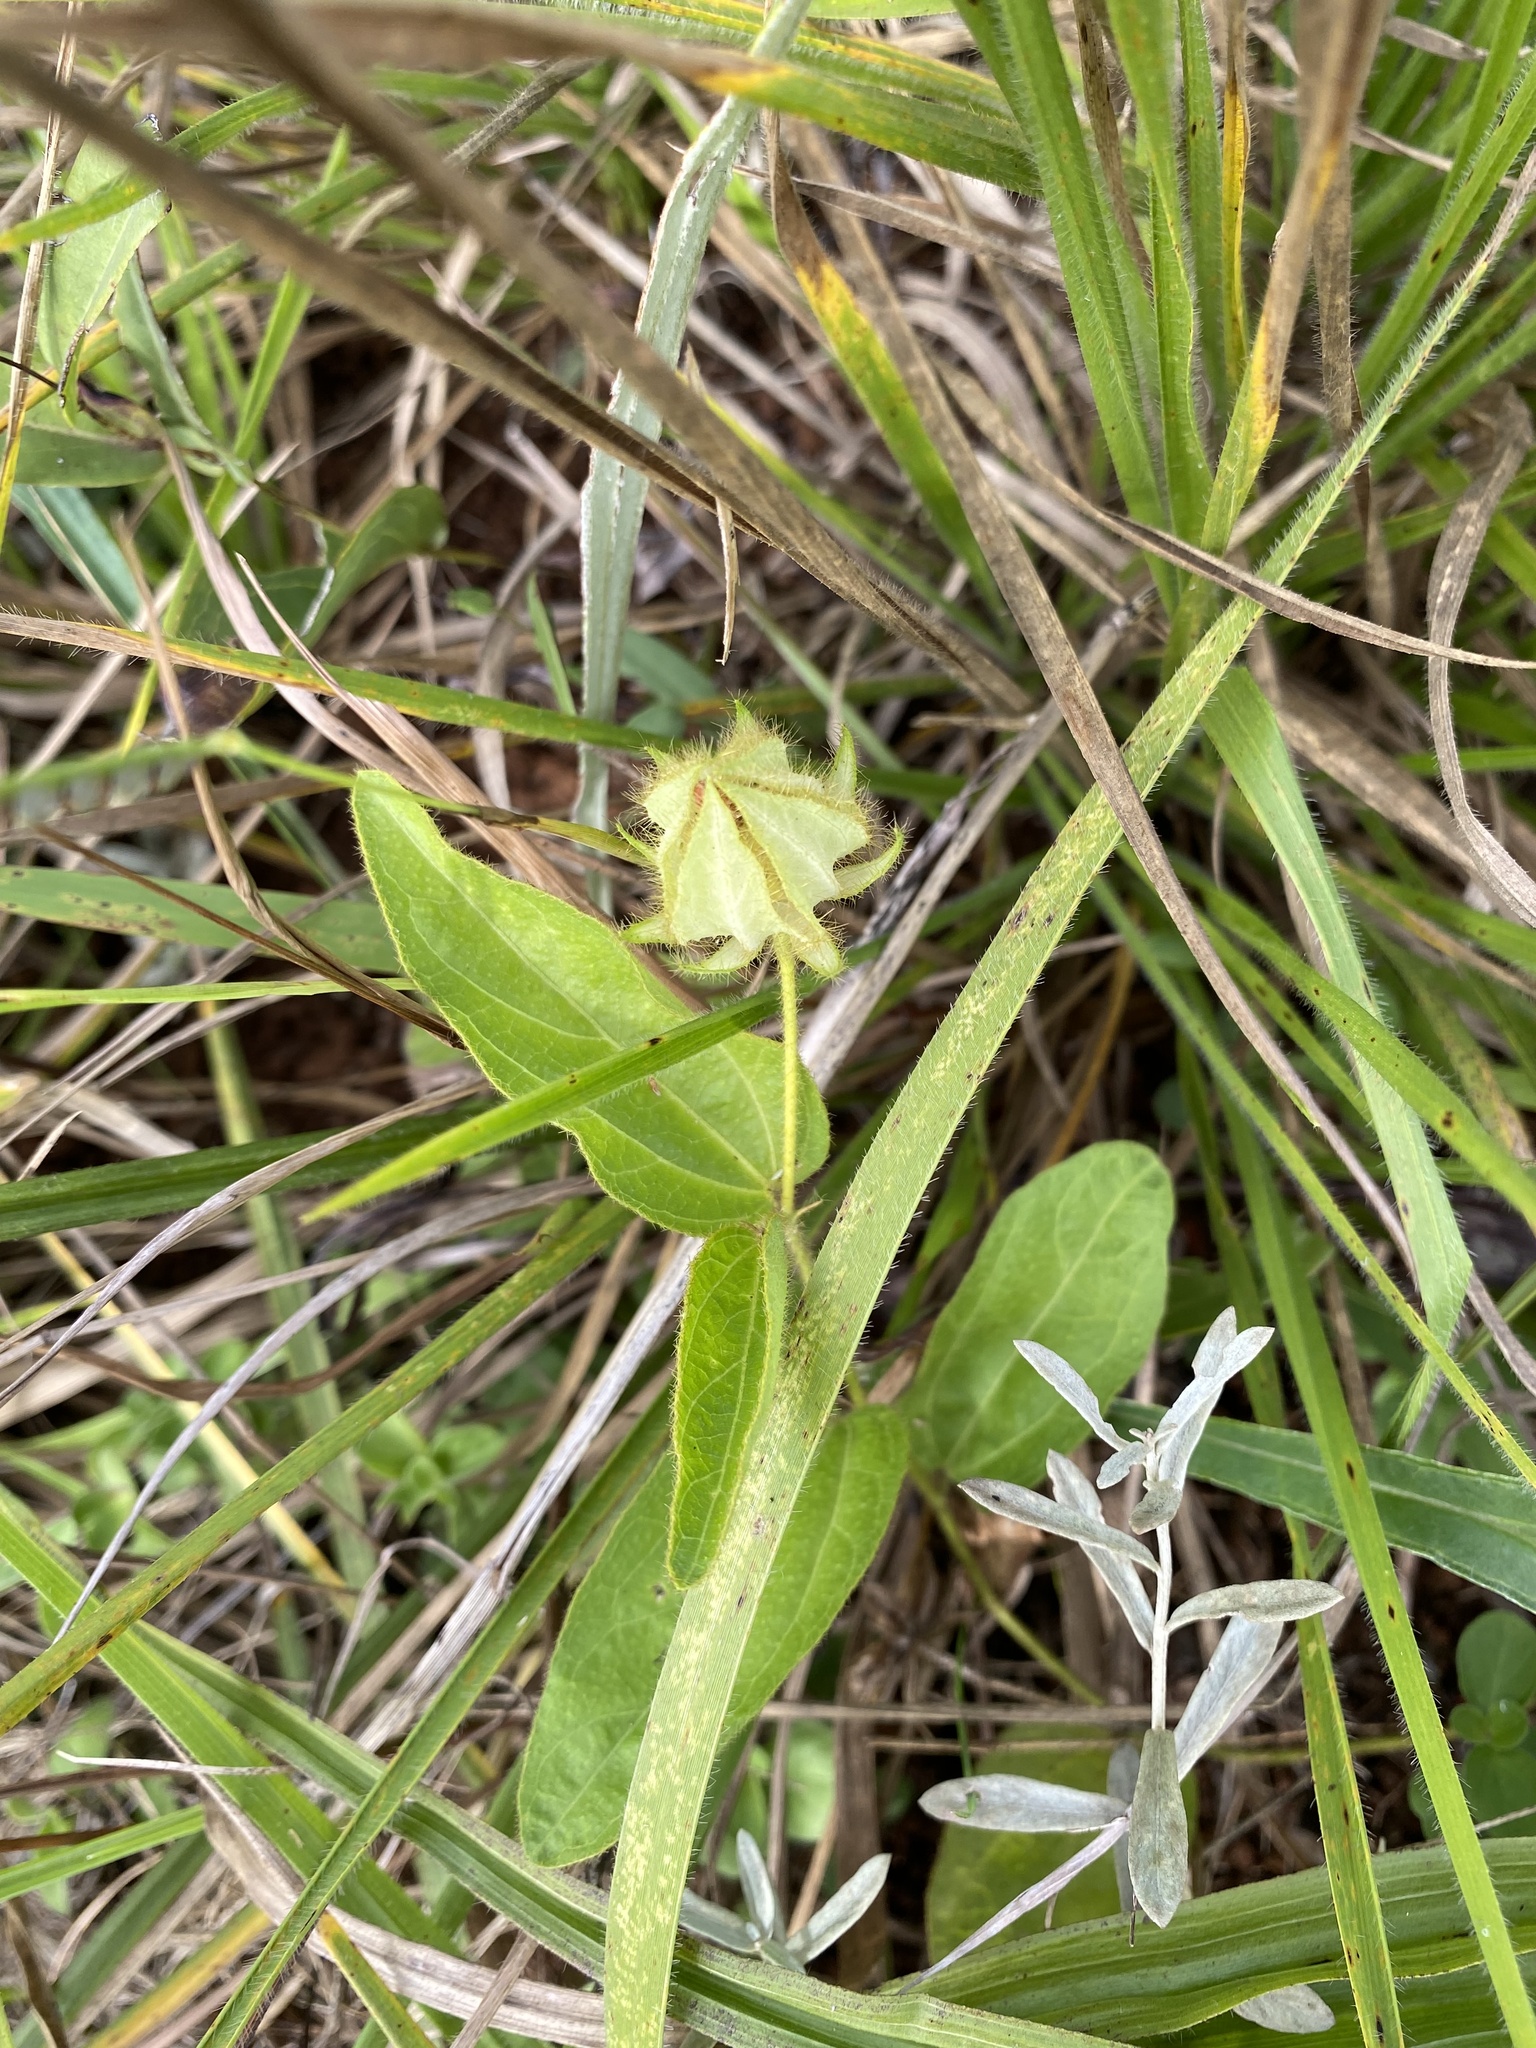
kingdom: Plantae
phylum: Tracheophyta
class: Magnoliopsida
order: Malvales
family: Malvaceae
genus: Hibiscus
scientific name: Hibiscus aethiopicus
